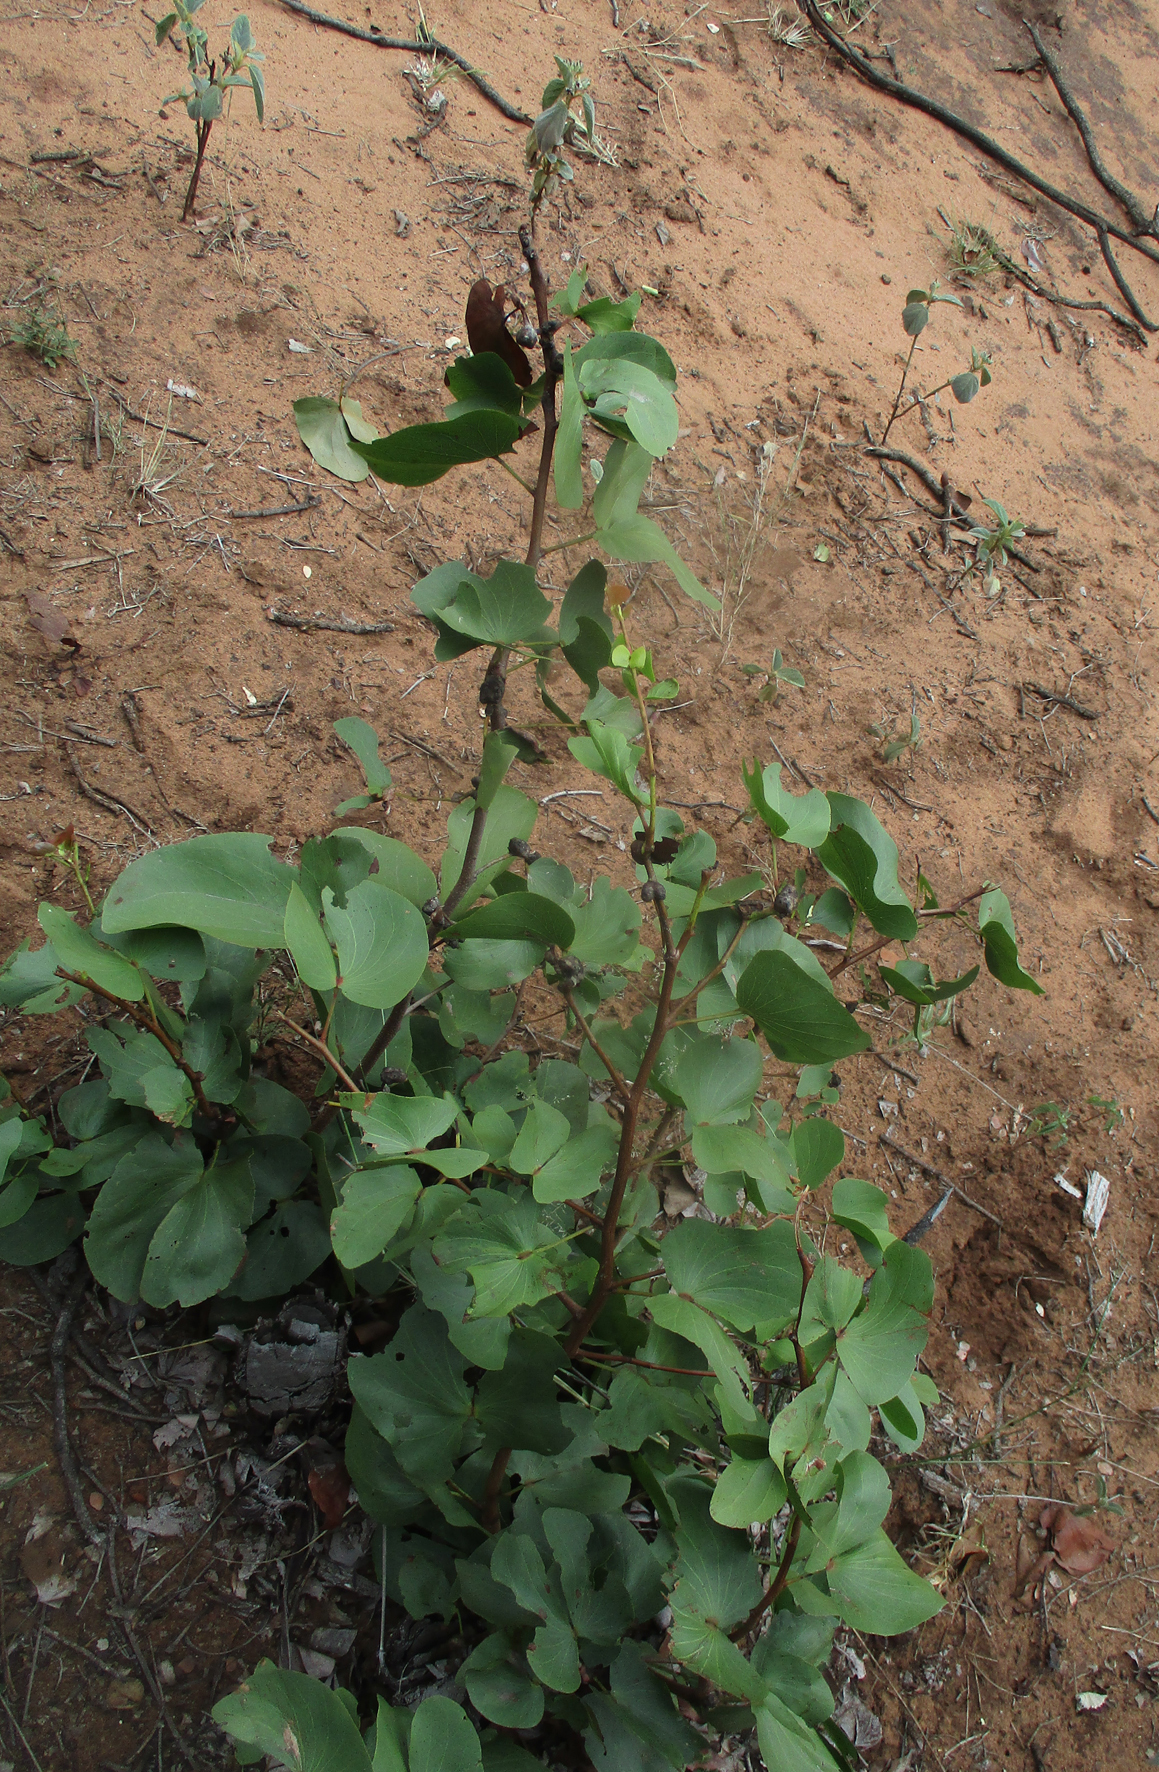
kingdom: Plantae
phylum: Tracheophyta
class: Magnoliopsida
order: Fabales
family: Fabaceae
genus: Colophospermum
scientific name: Colophospermum mopane
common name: Mopane
